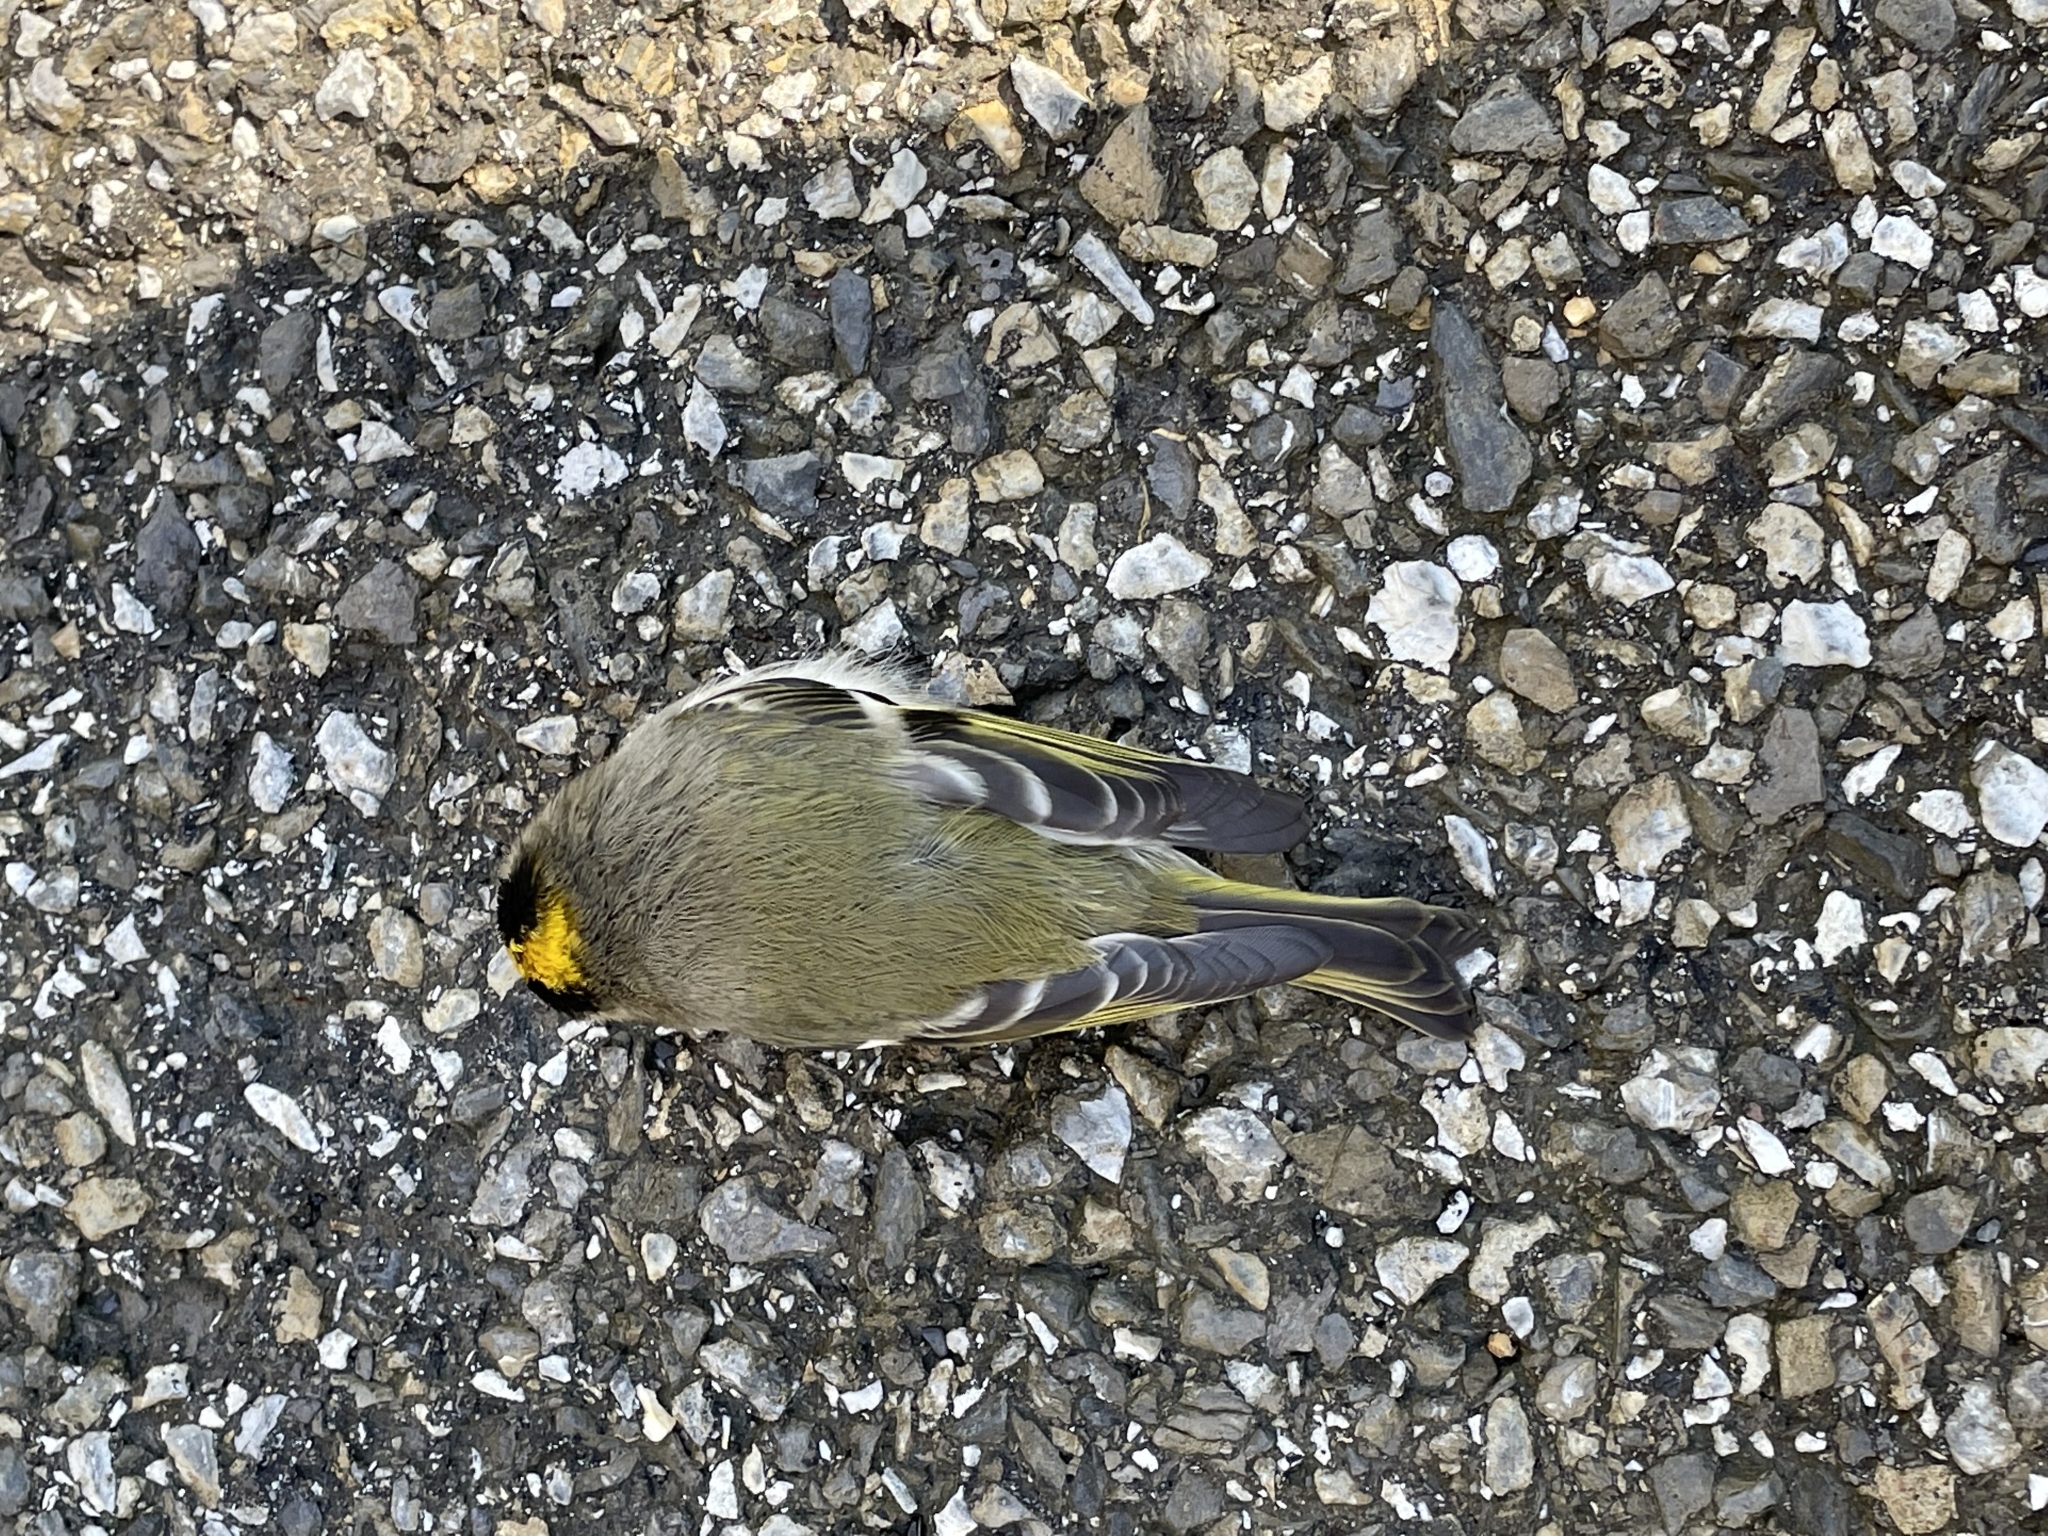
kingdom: Animalia
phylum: Chordata
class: Aves
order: Passeriformes
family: Regulidae
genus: Regulus
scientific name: Regulus satrapa
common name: Golden-crowned kinglet
